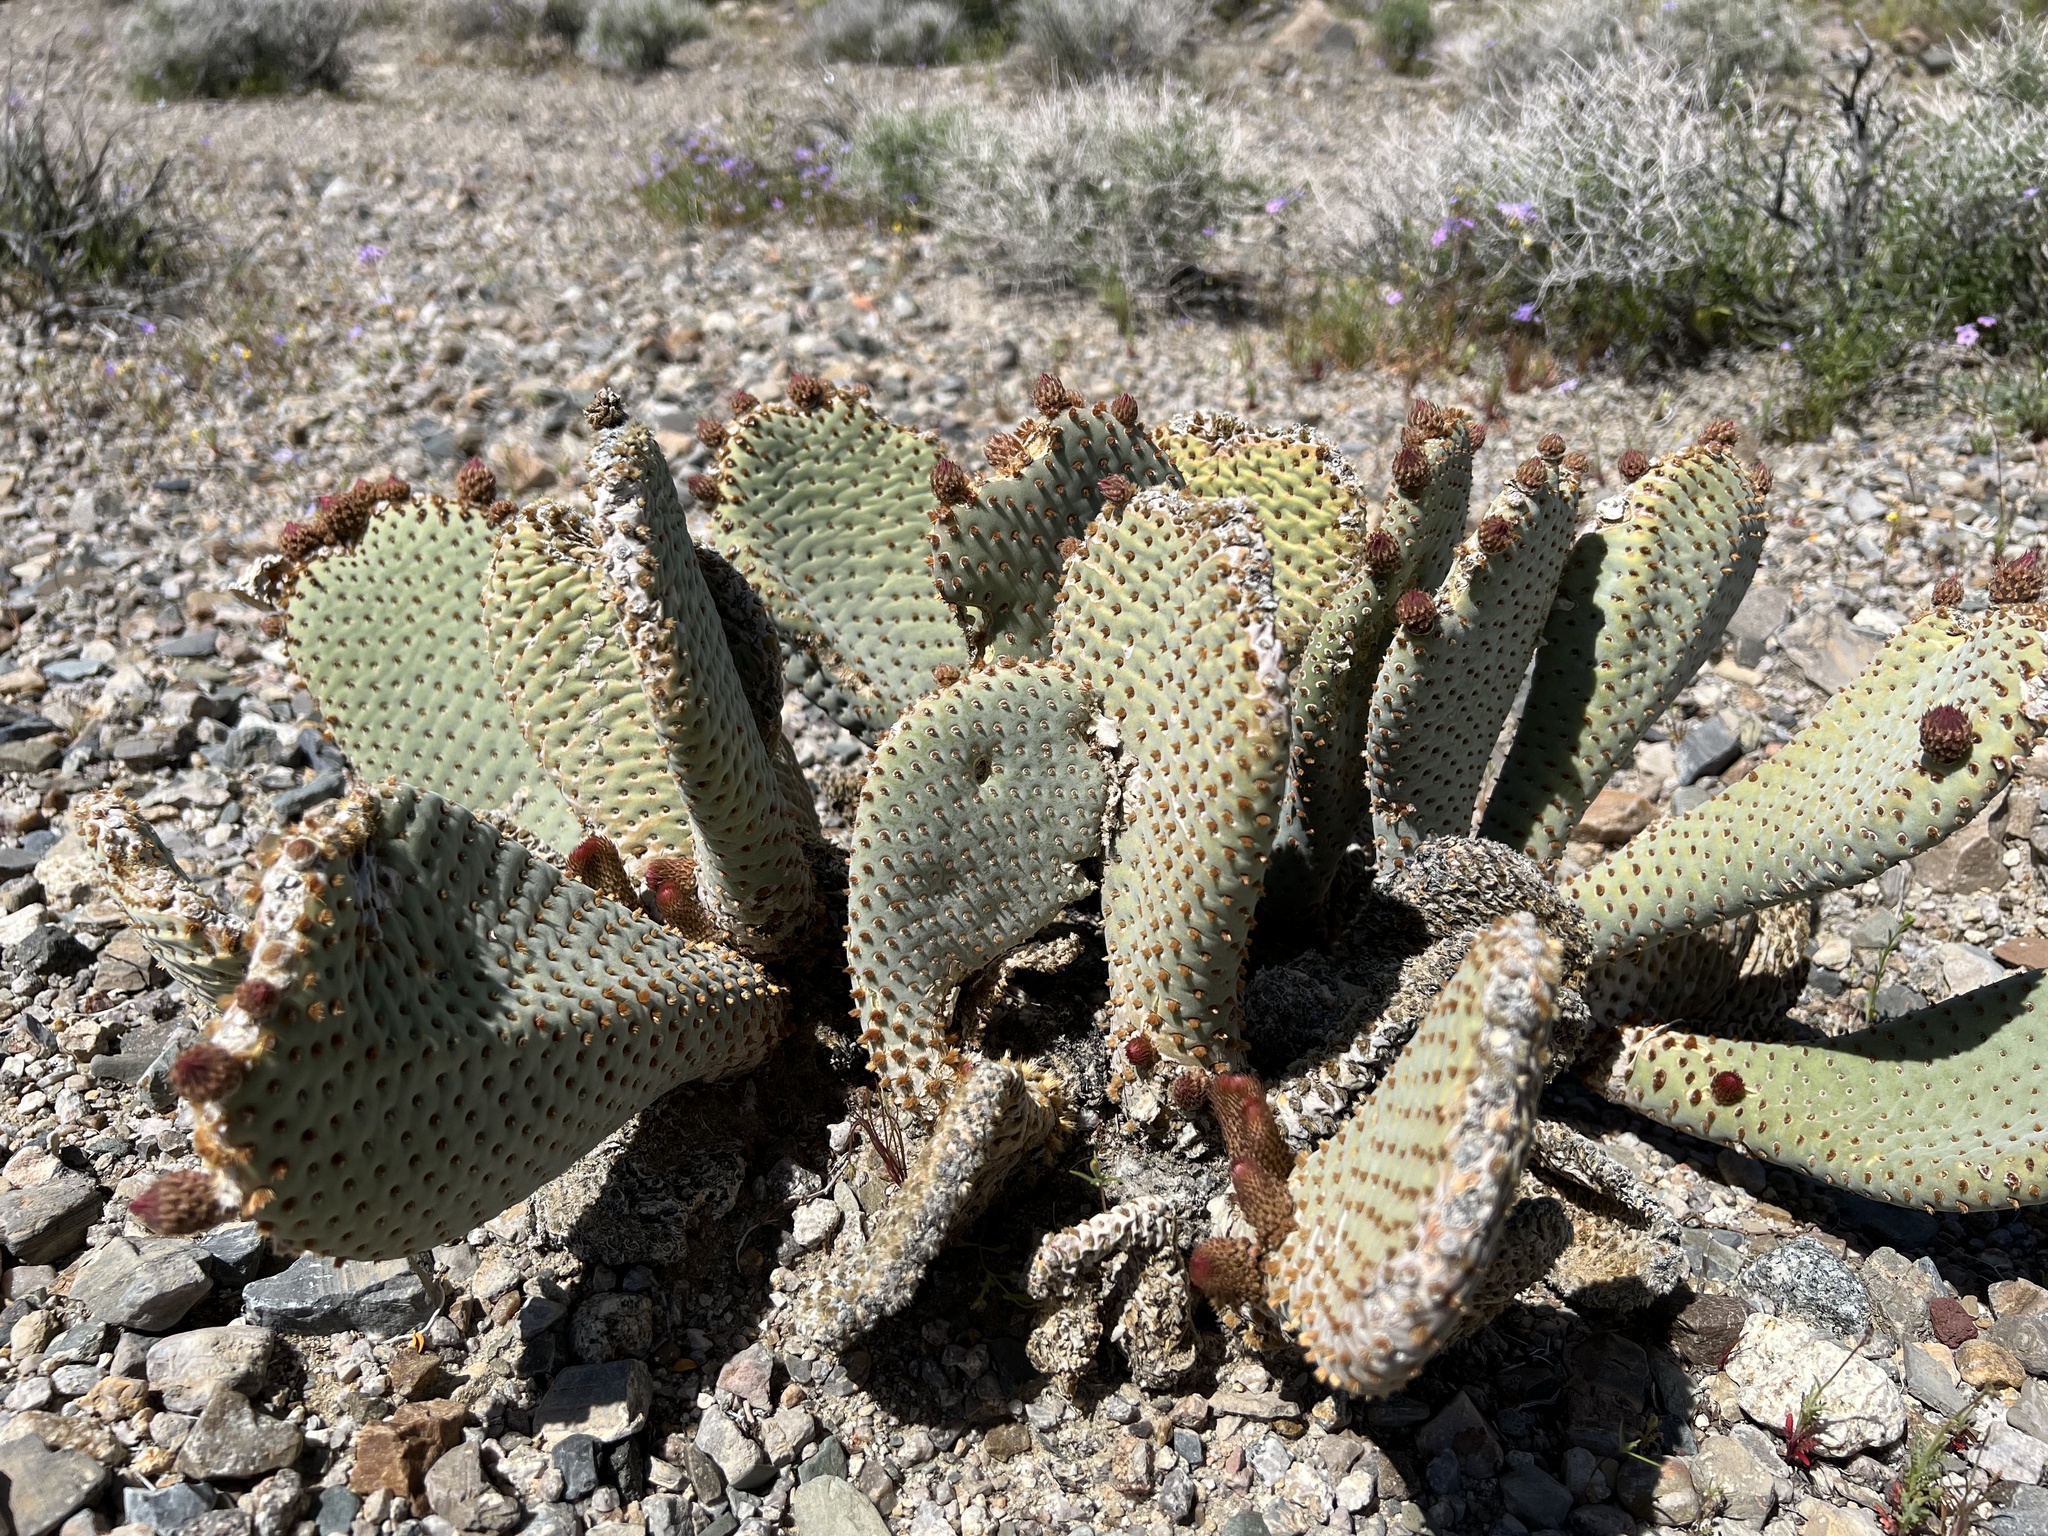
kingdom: Plantae
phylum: Tracheophyta
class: Magnoliopsida
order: Caryophyllales
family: Cactaceae
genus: Opuntia
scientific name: Opuntia basilaris
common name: Beavertail prickly-pear
